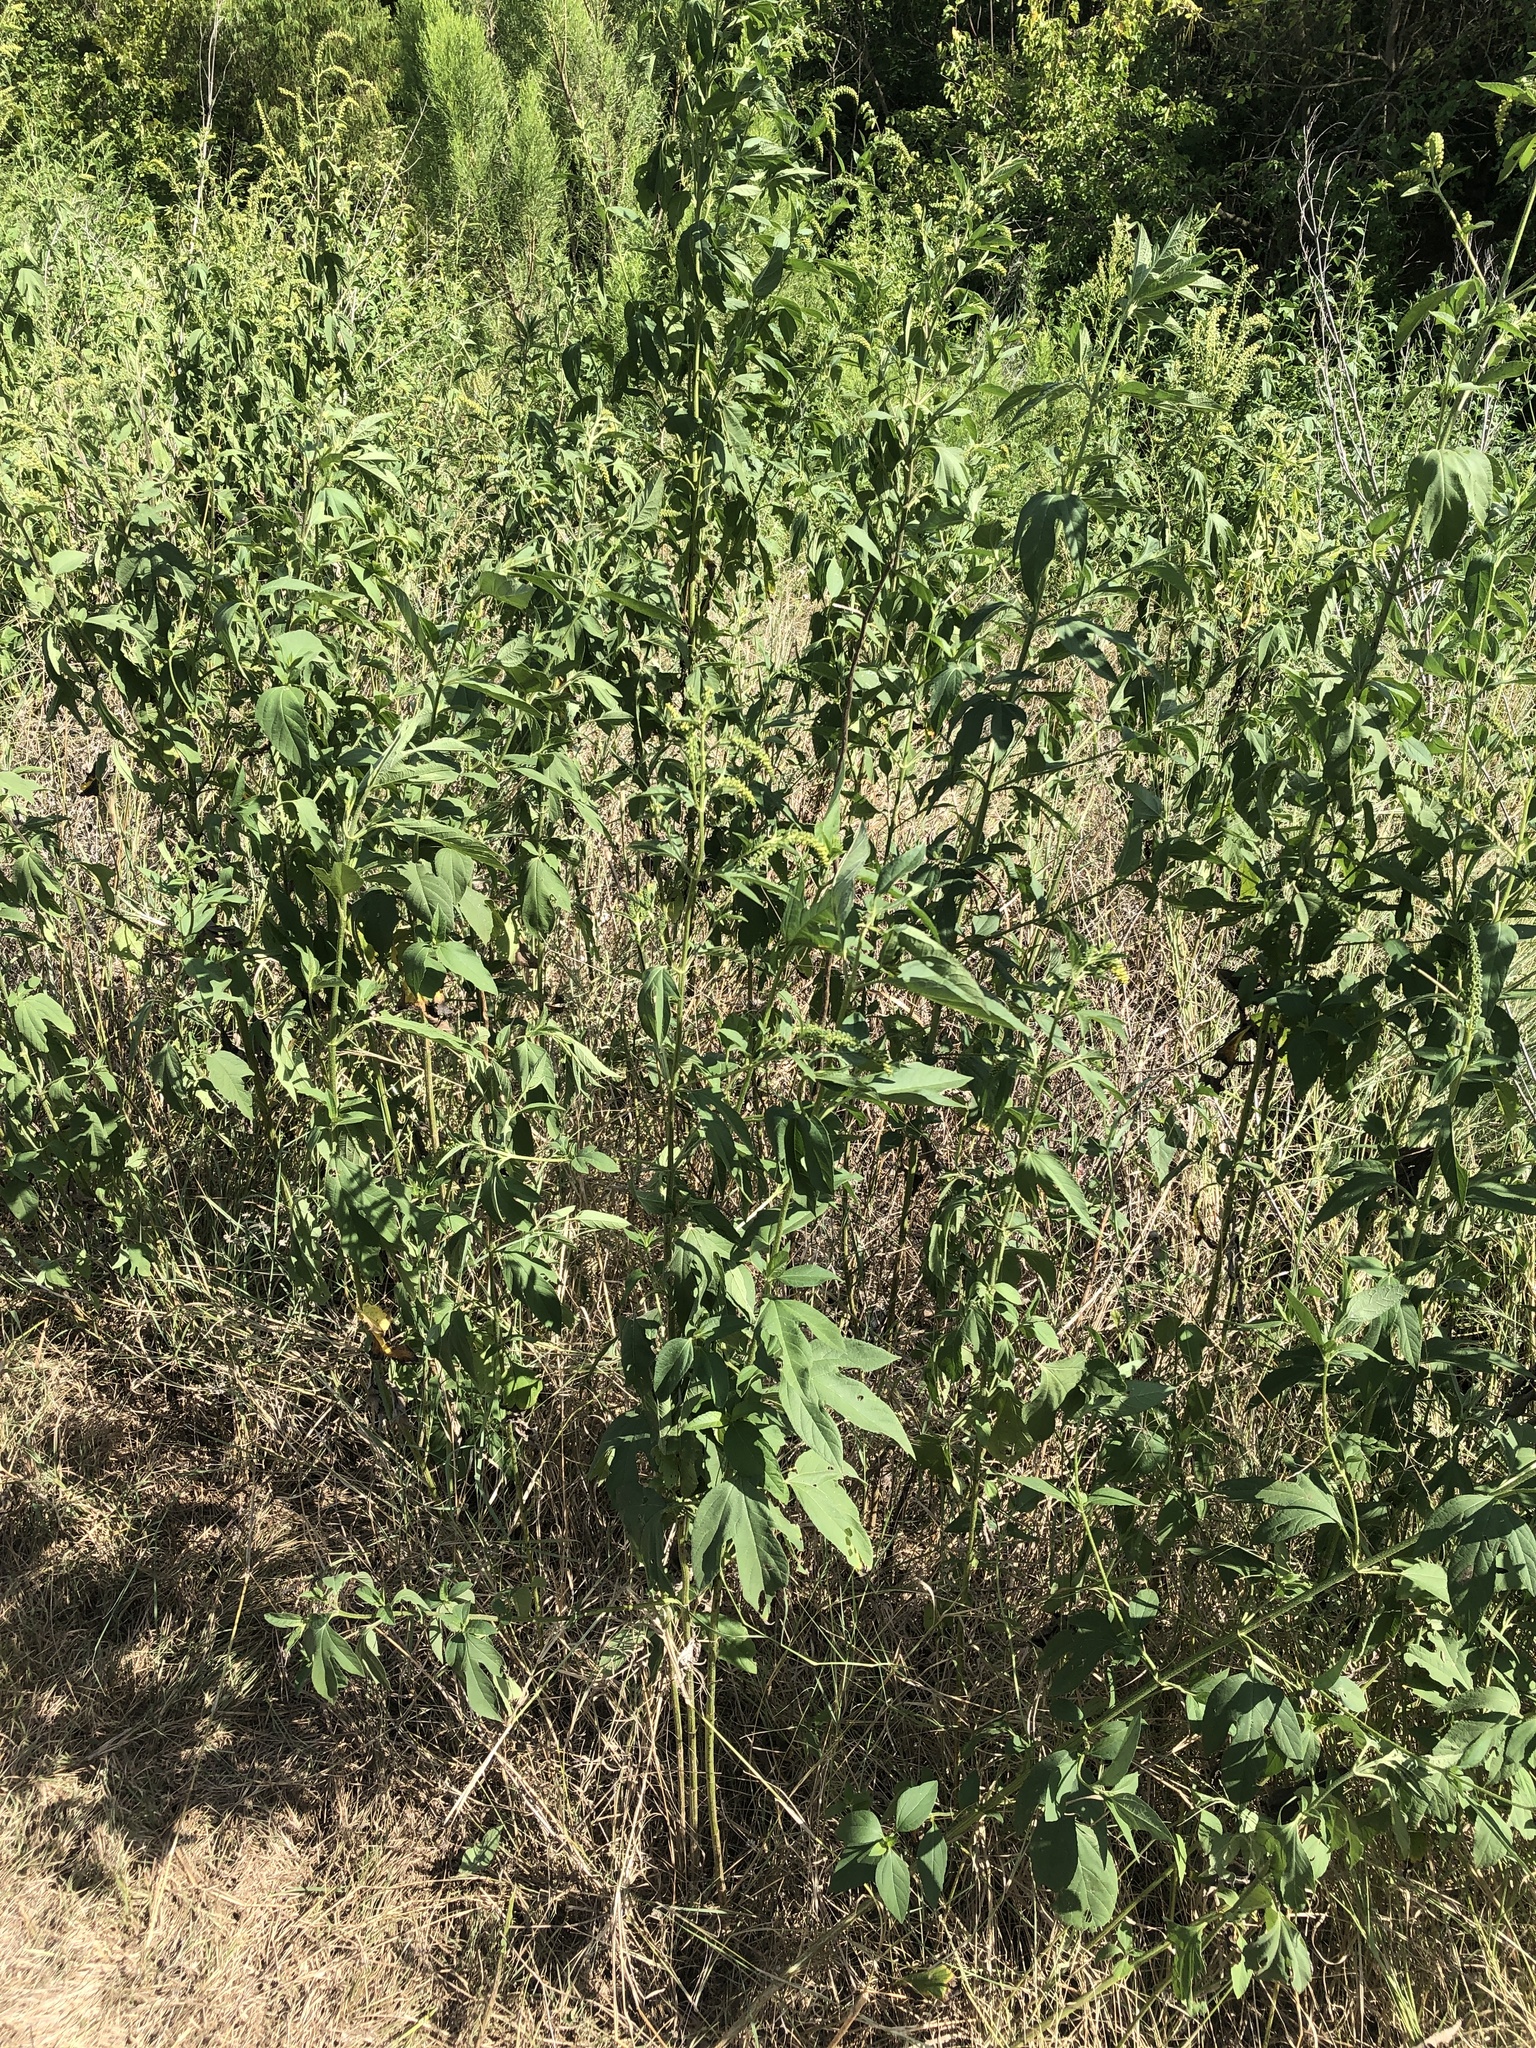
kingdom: Plantae
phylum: Tracheophyta
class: Magnoliopsida
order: Asterales
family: Asteraceae
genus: Ambrosia
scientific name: Ambrosia trifida
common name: Giant ragweed
